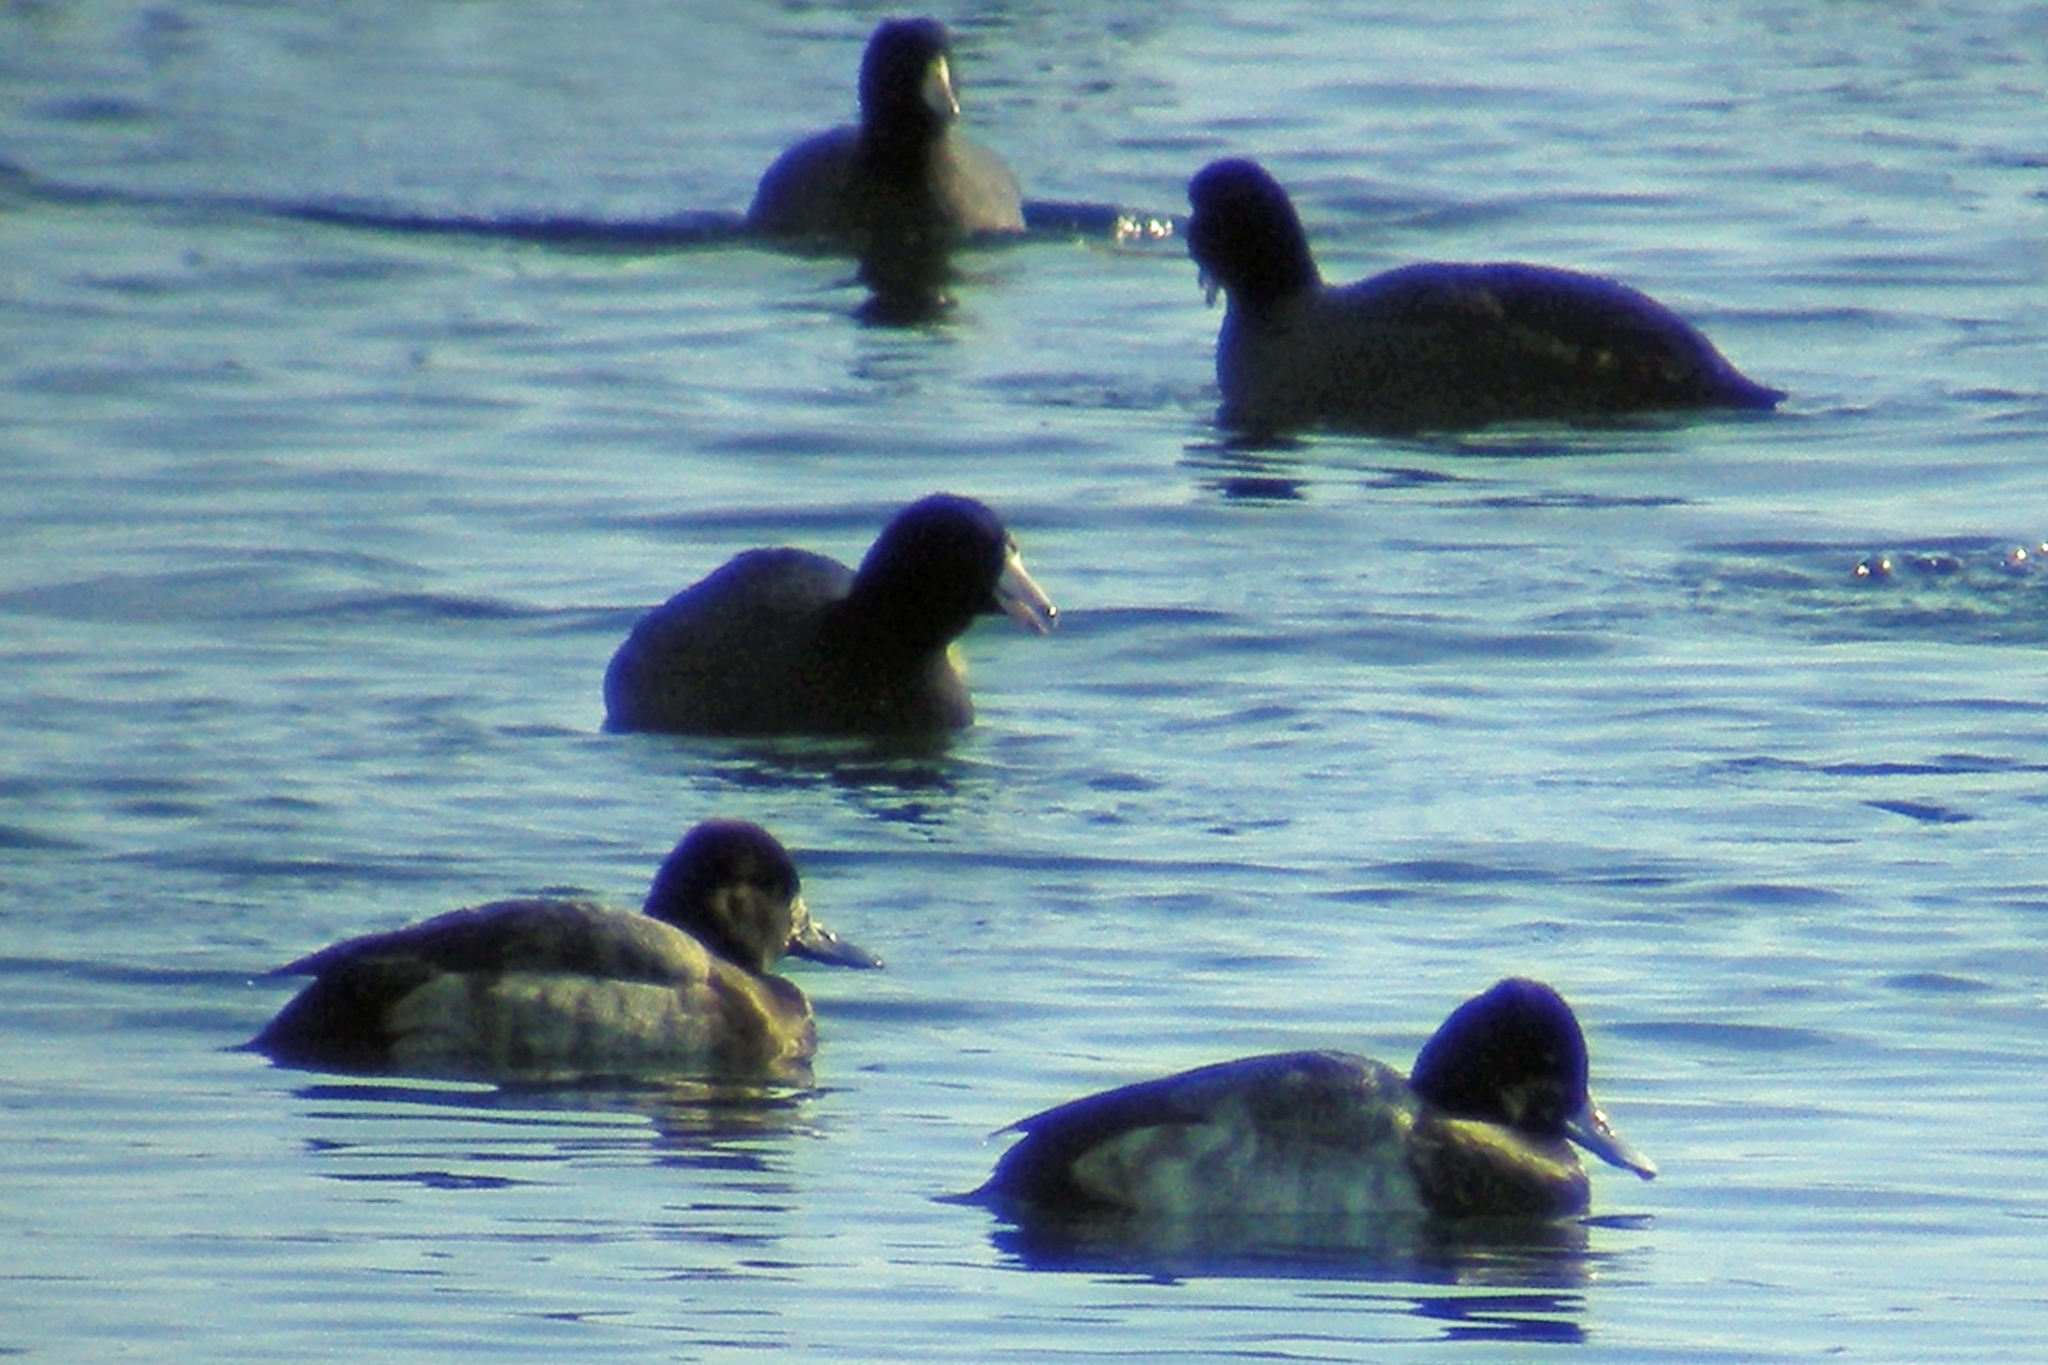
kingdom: Animalia
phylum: Chordata
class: Aves
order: Anseriformes
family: Anatidae
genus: Aythya
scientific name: Aythya affinis
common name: Lesser scaup
